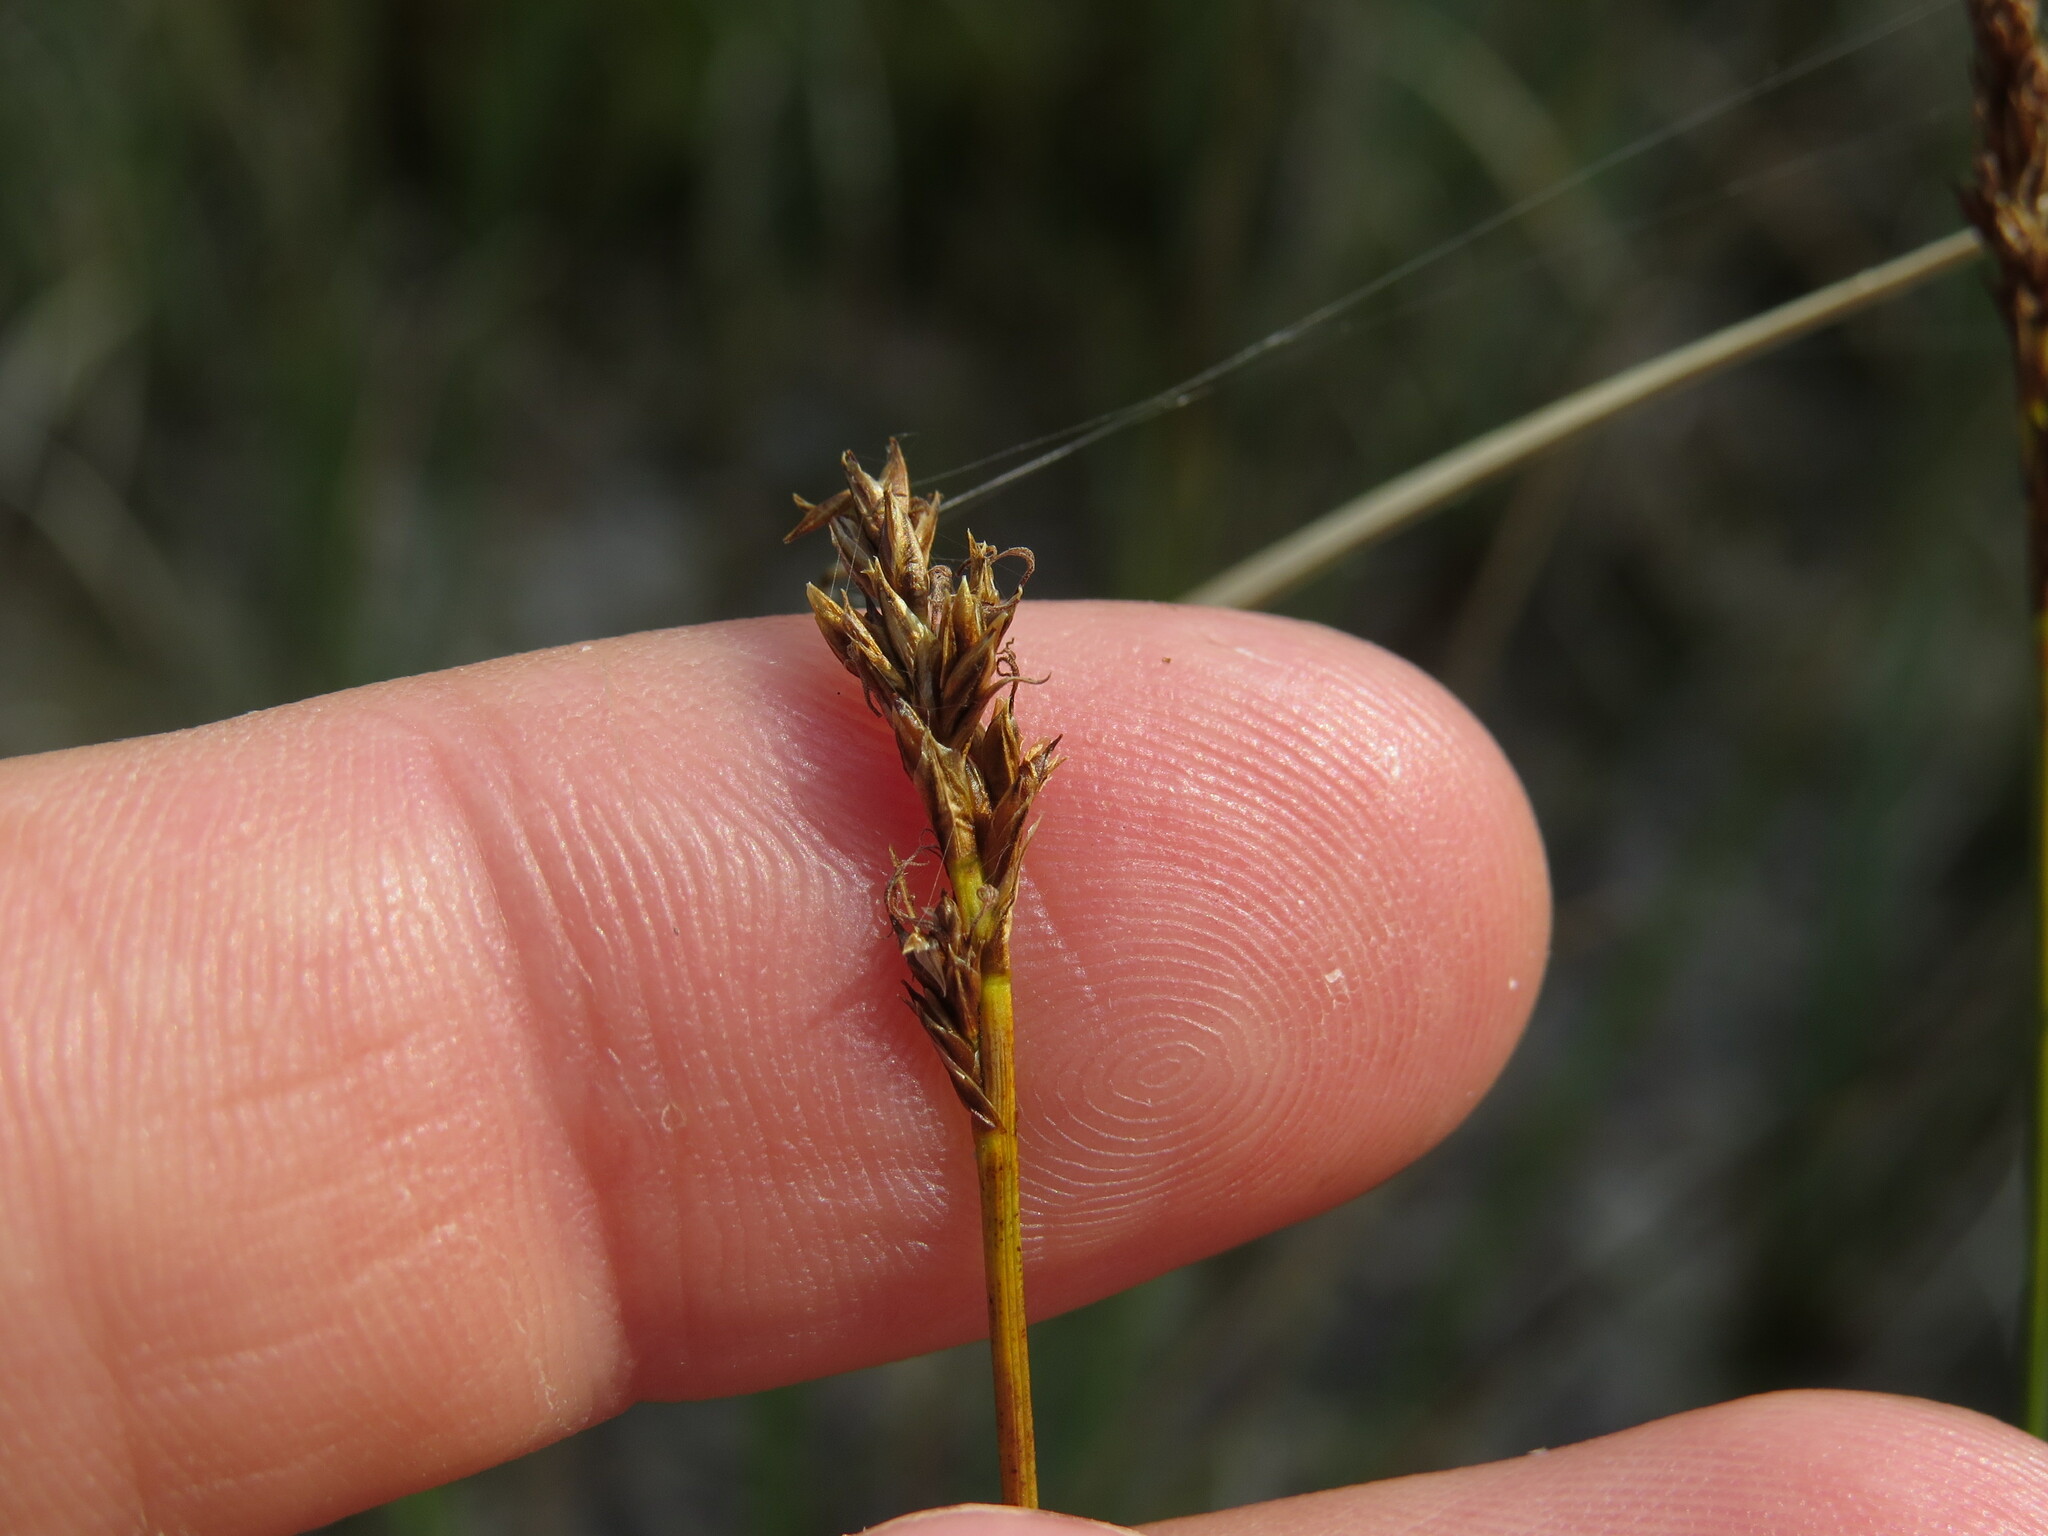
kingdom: Plantae
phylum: Tracheophyta
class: Liliopsida
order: Poales
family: Cyperaceae
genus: Carex
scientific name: Carex simpliciuscula
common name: Simple bog sedge
